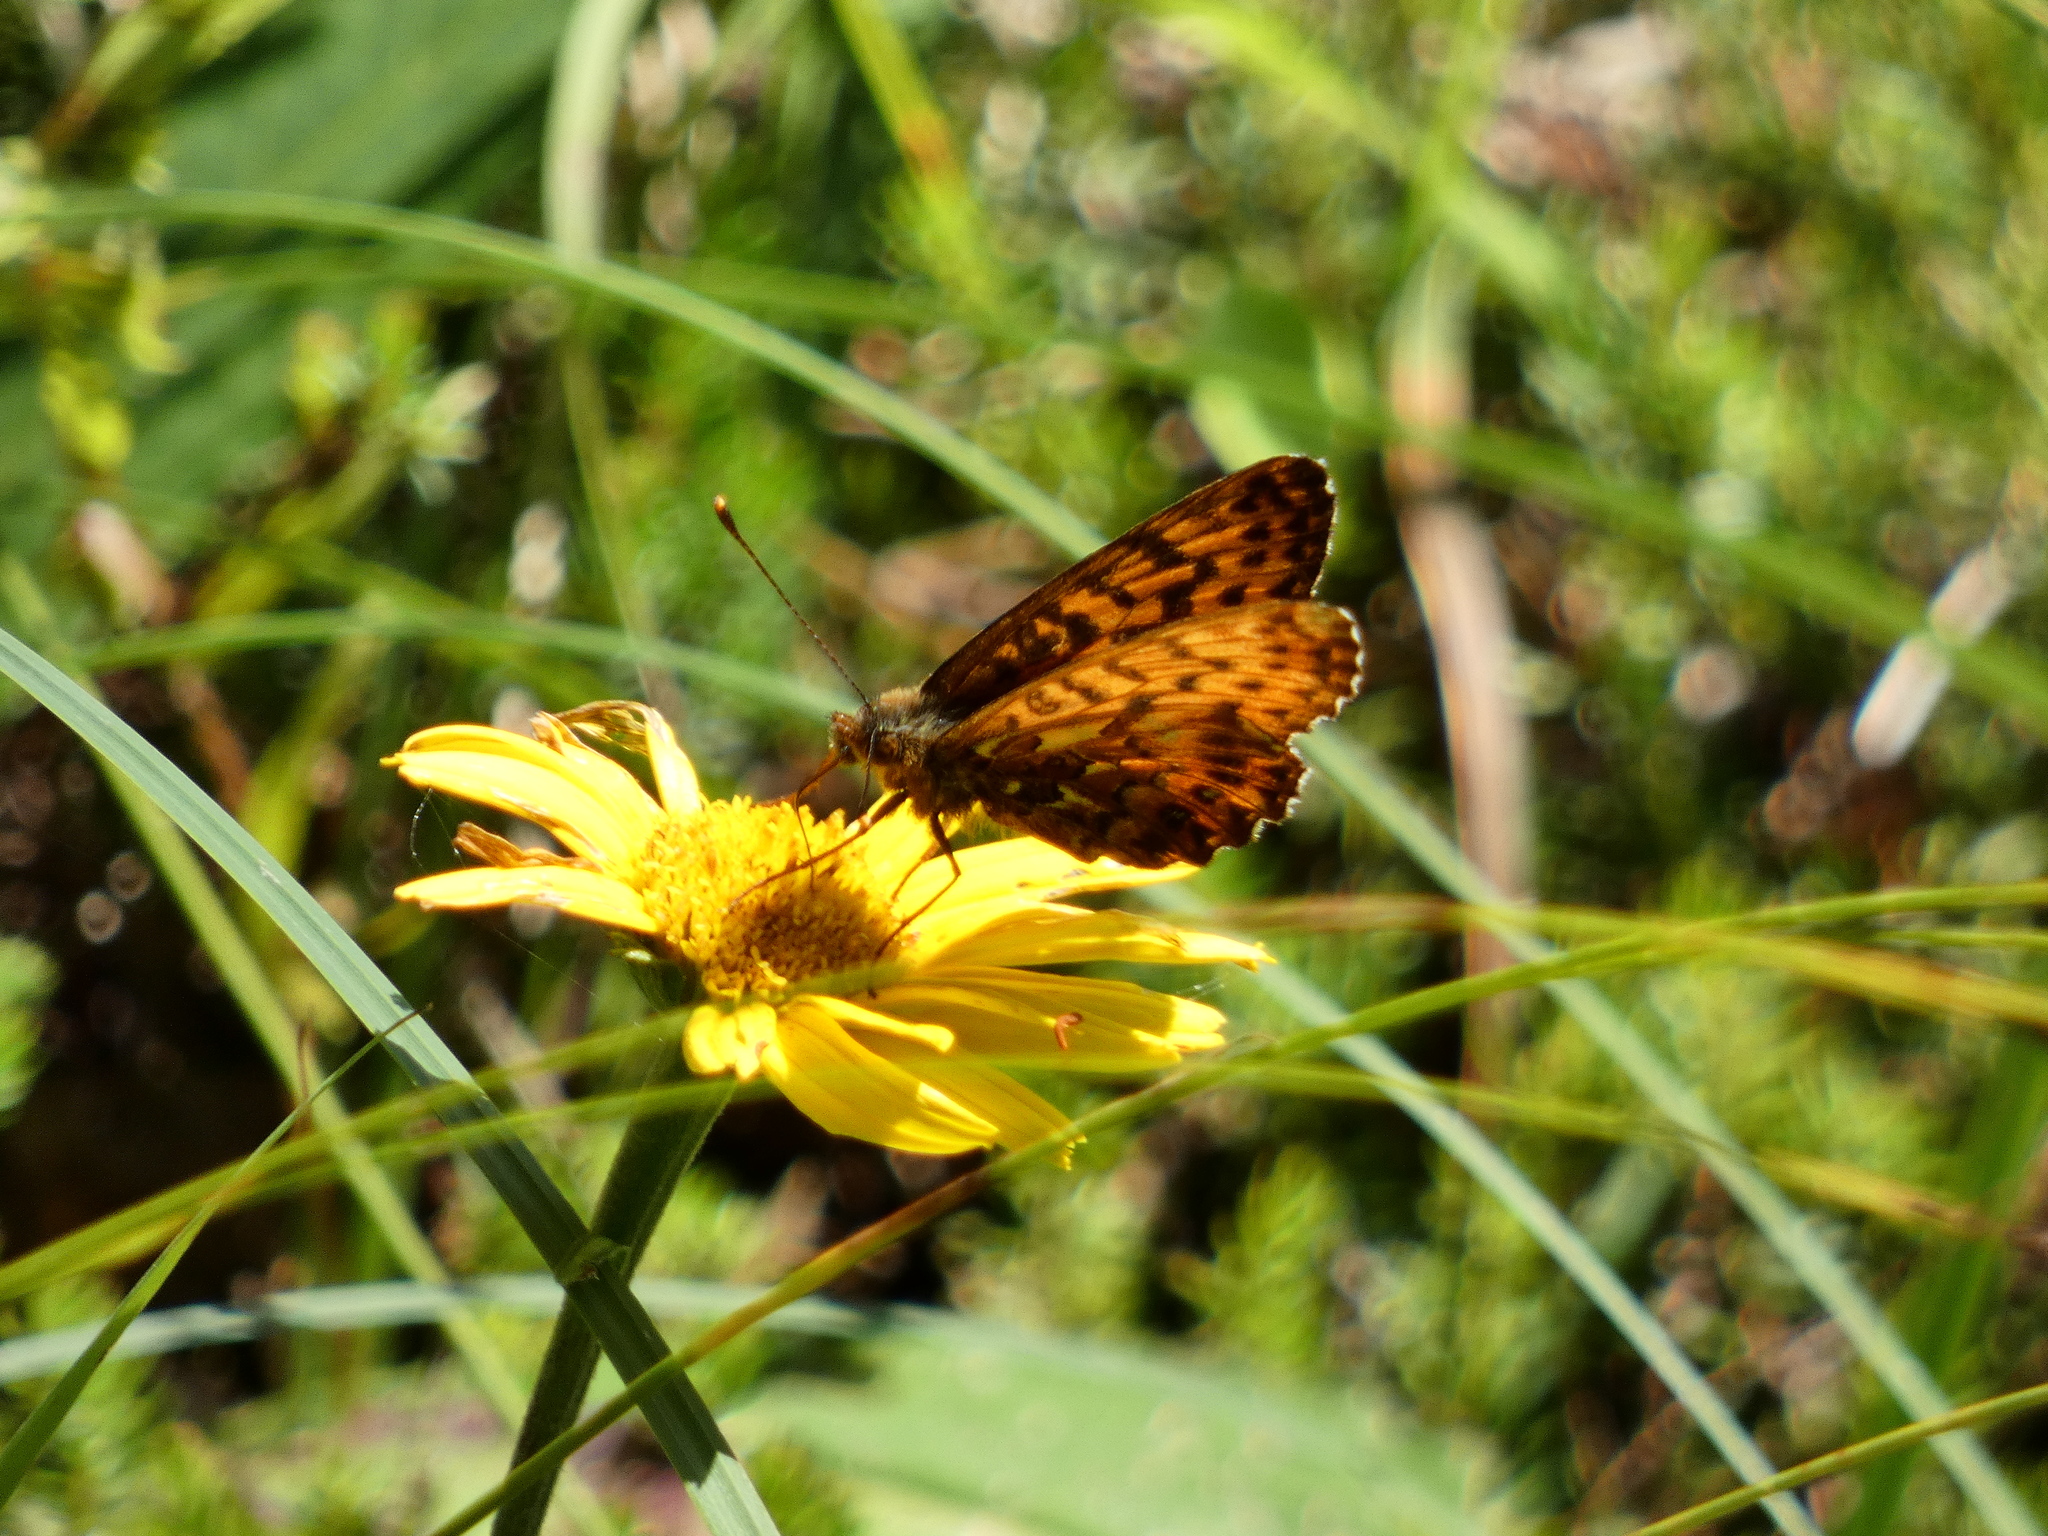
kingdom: Animalia
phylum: Arthropoda
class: Insecta
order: Lepidoptera
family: Nymphalidae
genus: Boloria
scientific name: Boloria titania
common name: Titania's fritillary
